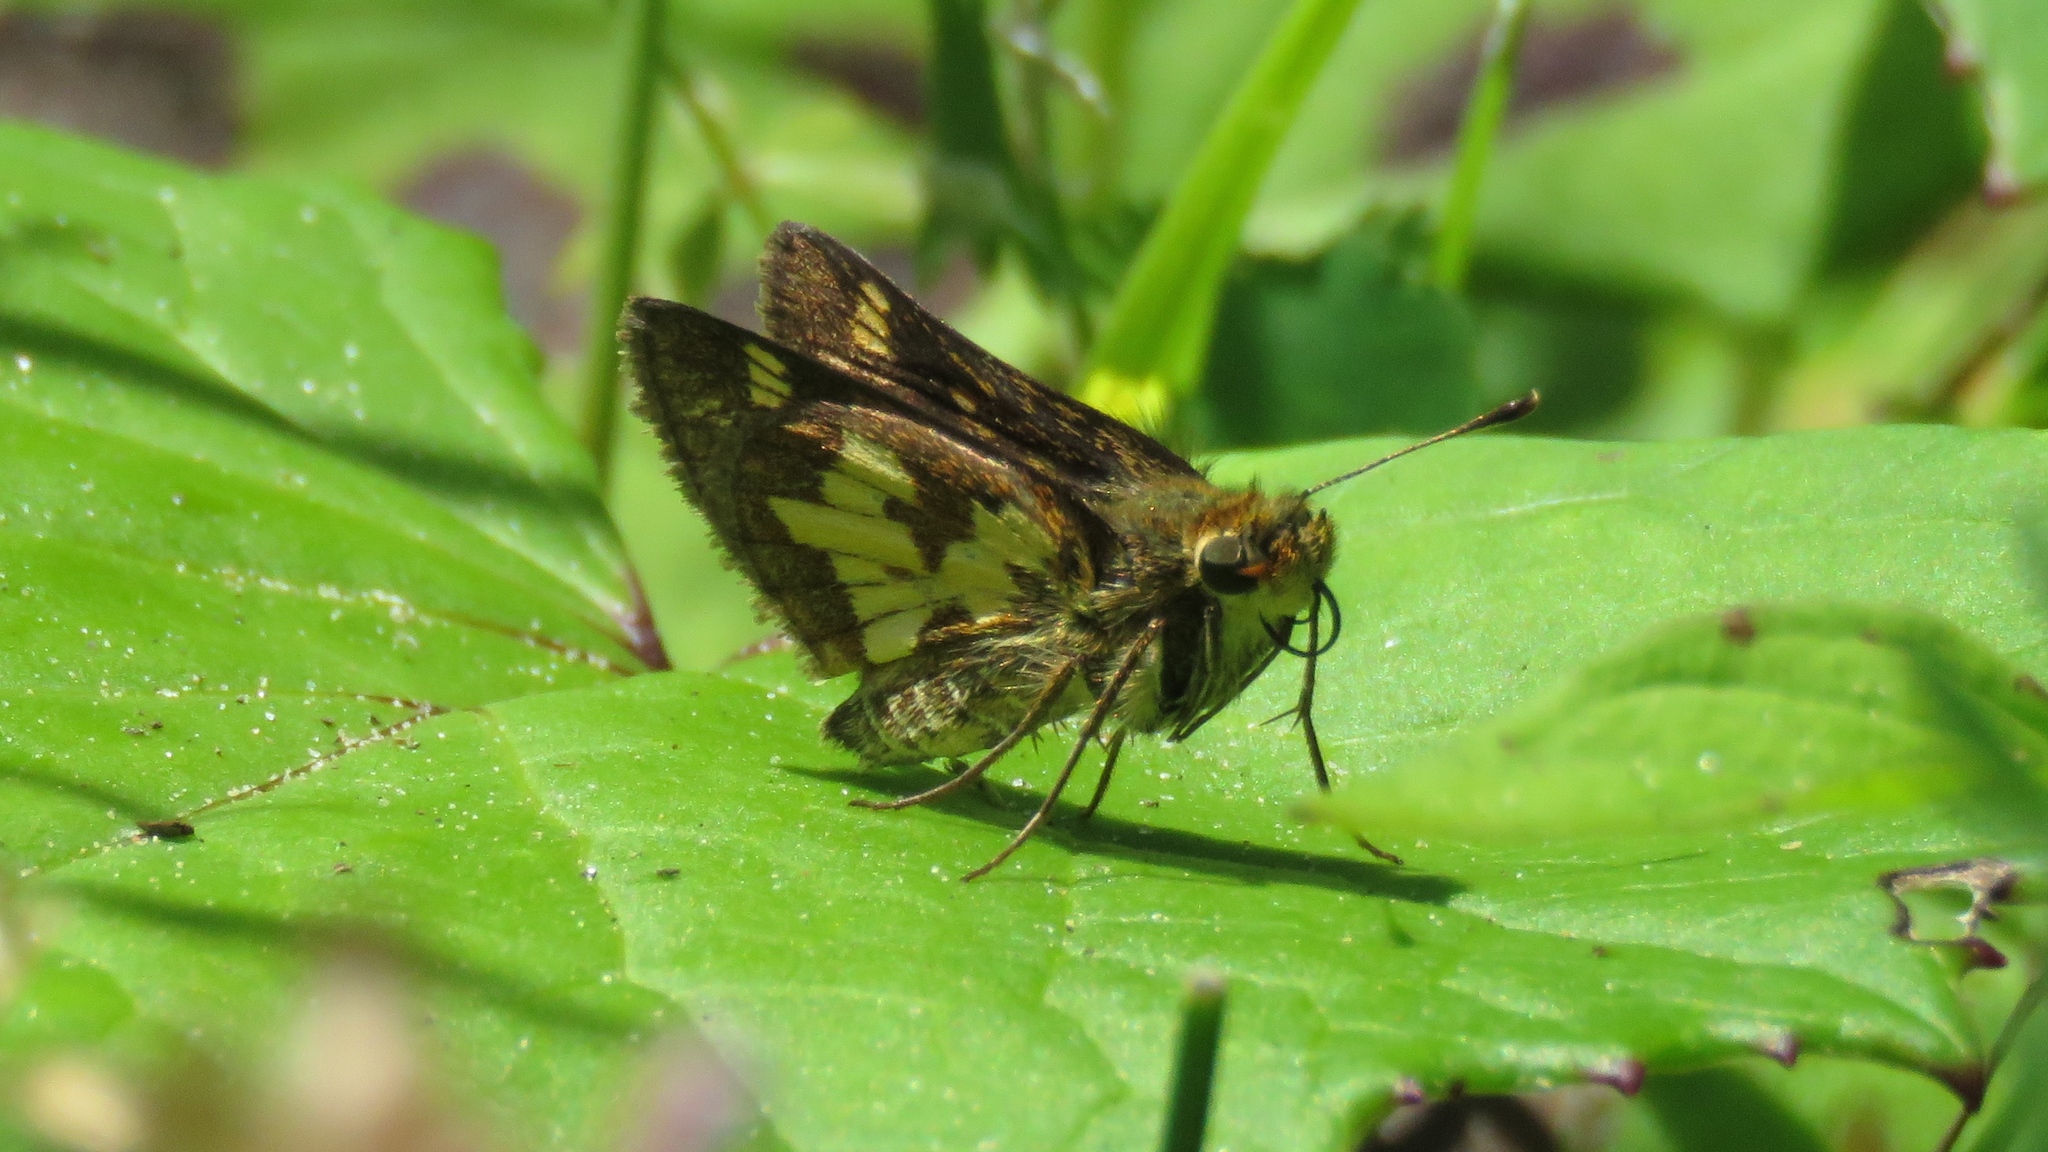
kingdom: Animalia
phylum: Arthropoda
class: Insecta
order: Lepidoptera
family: Hesperiidae
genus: Polites
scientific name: Polites coras
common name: Peck's skipper
